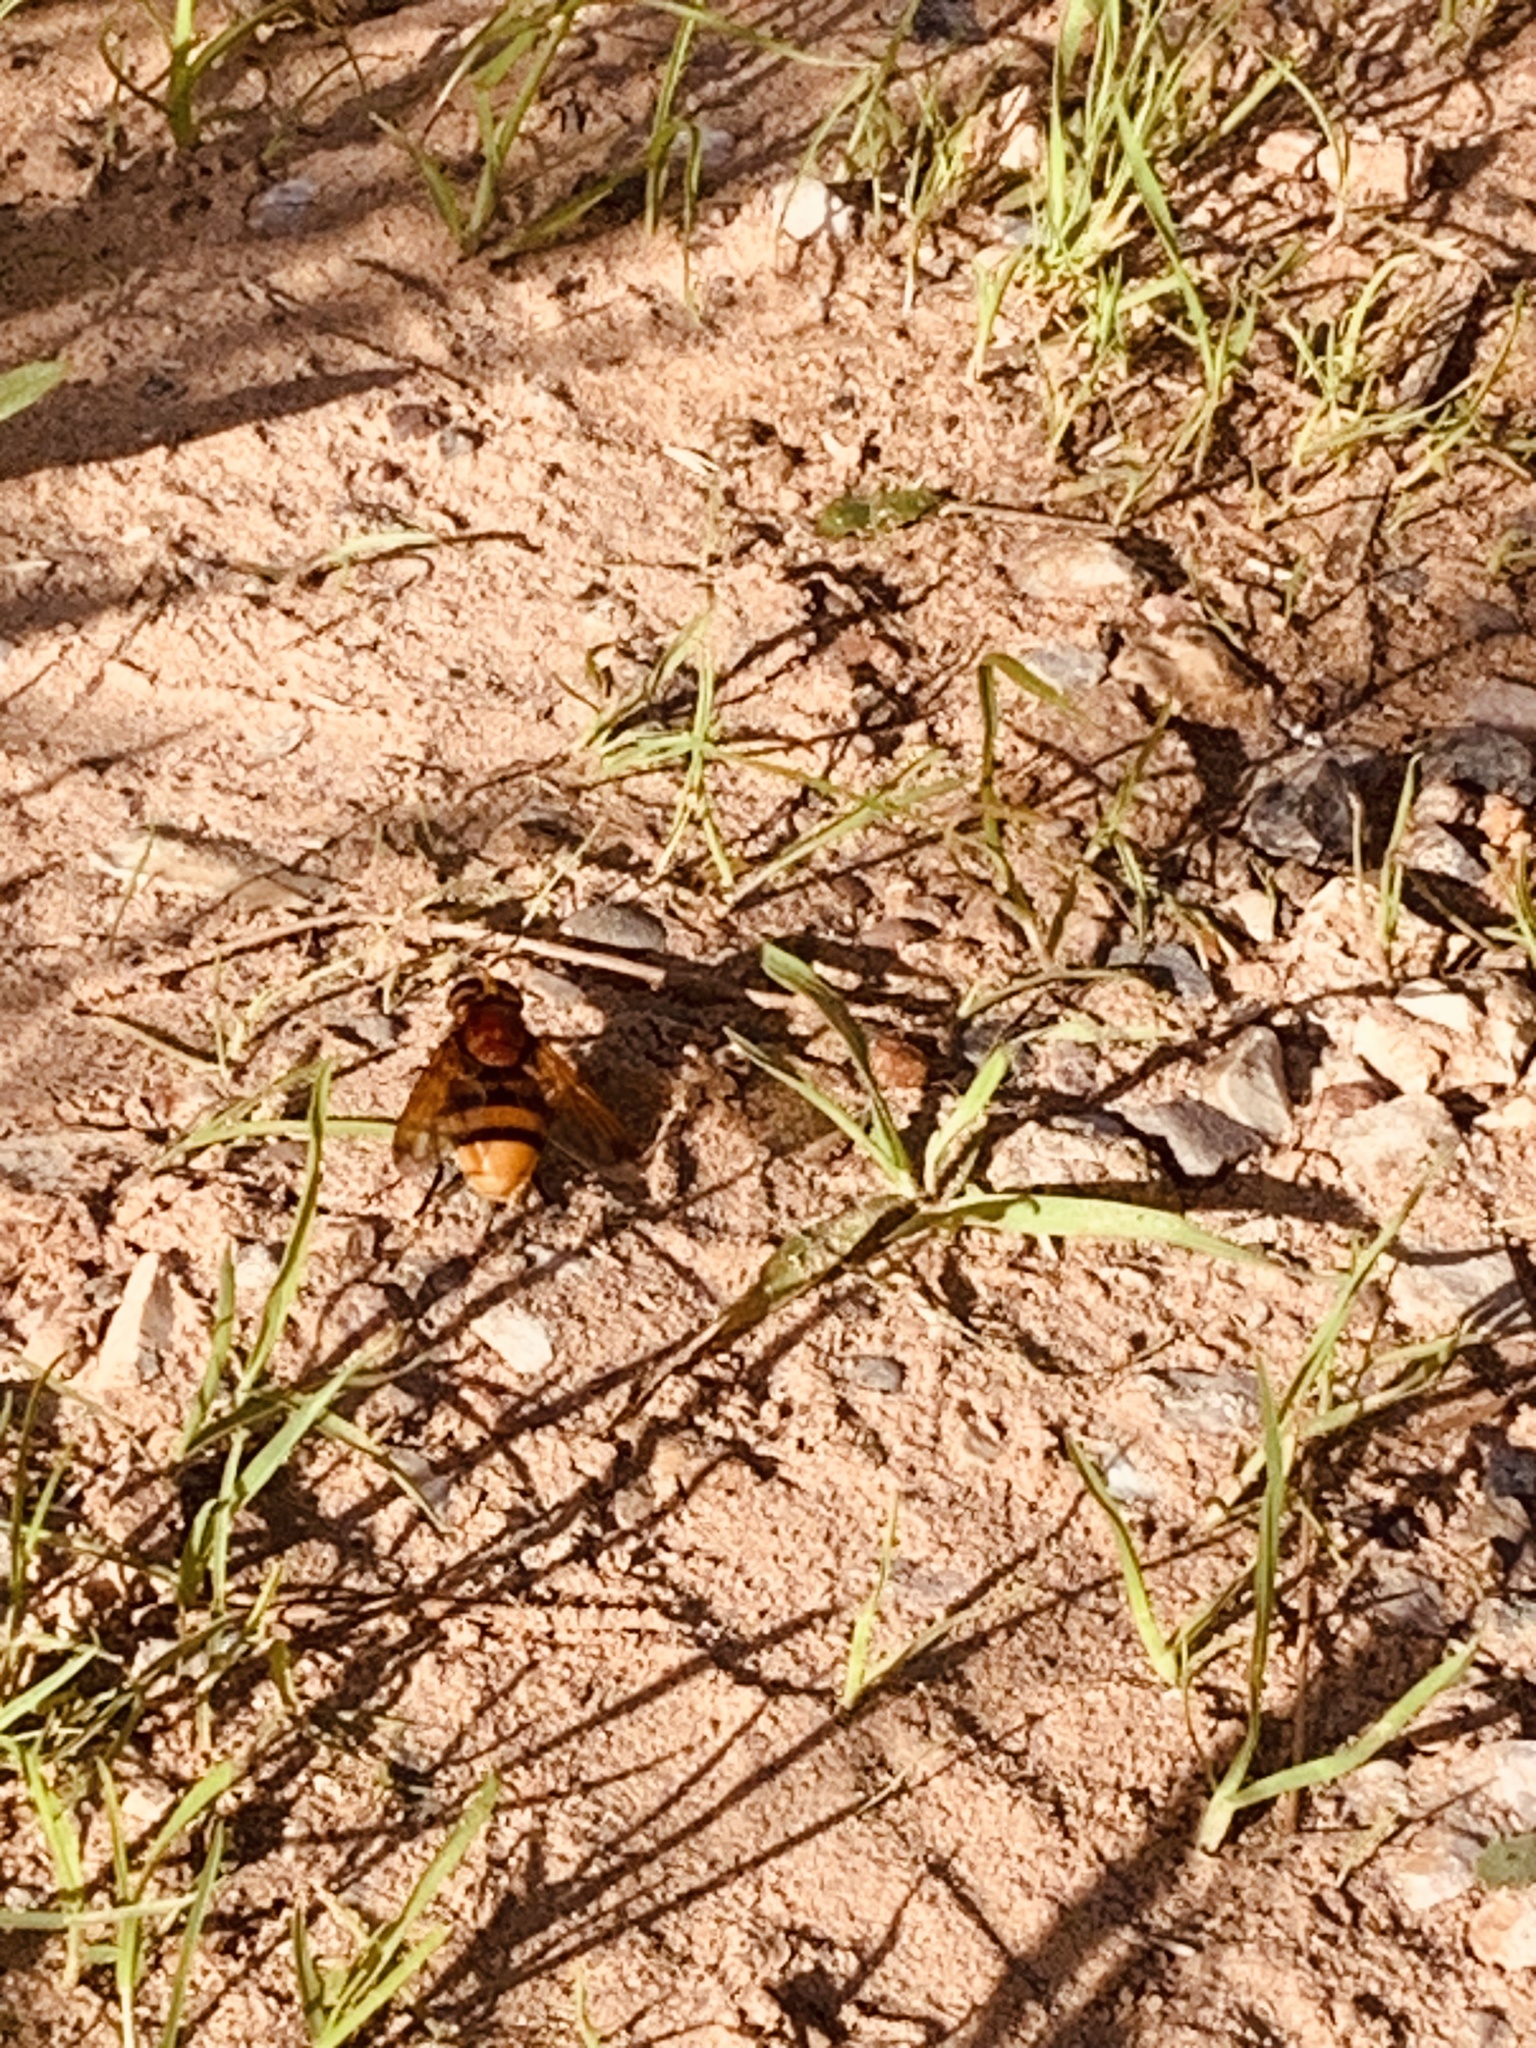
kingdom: Animalia
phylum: Arthropoda
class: Insecta
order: Diptera
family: Syrphidae
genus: Volucella
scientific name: Volucella zonaria
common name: Hornet hoverfly
